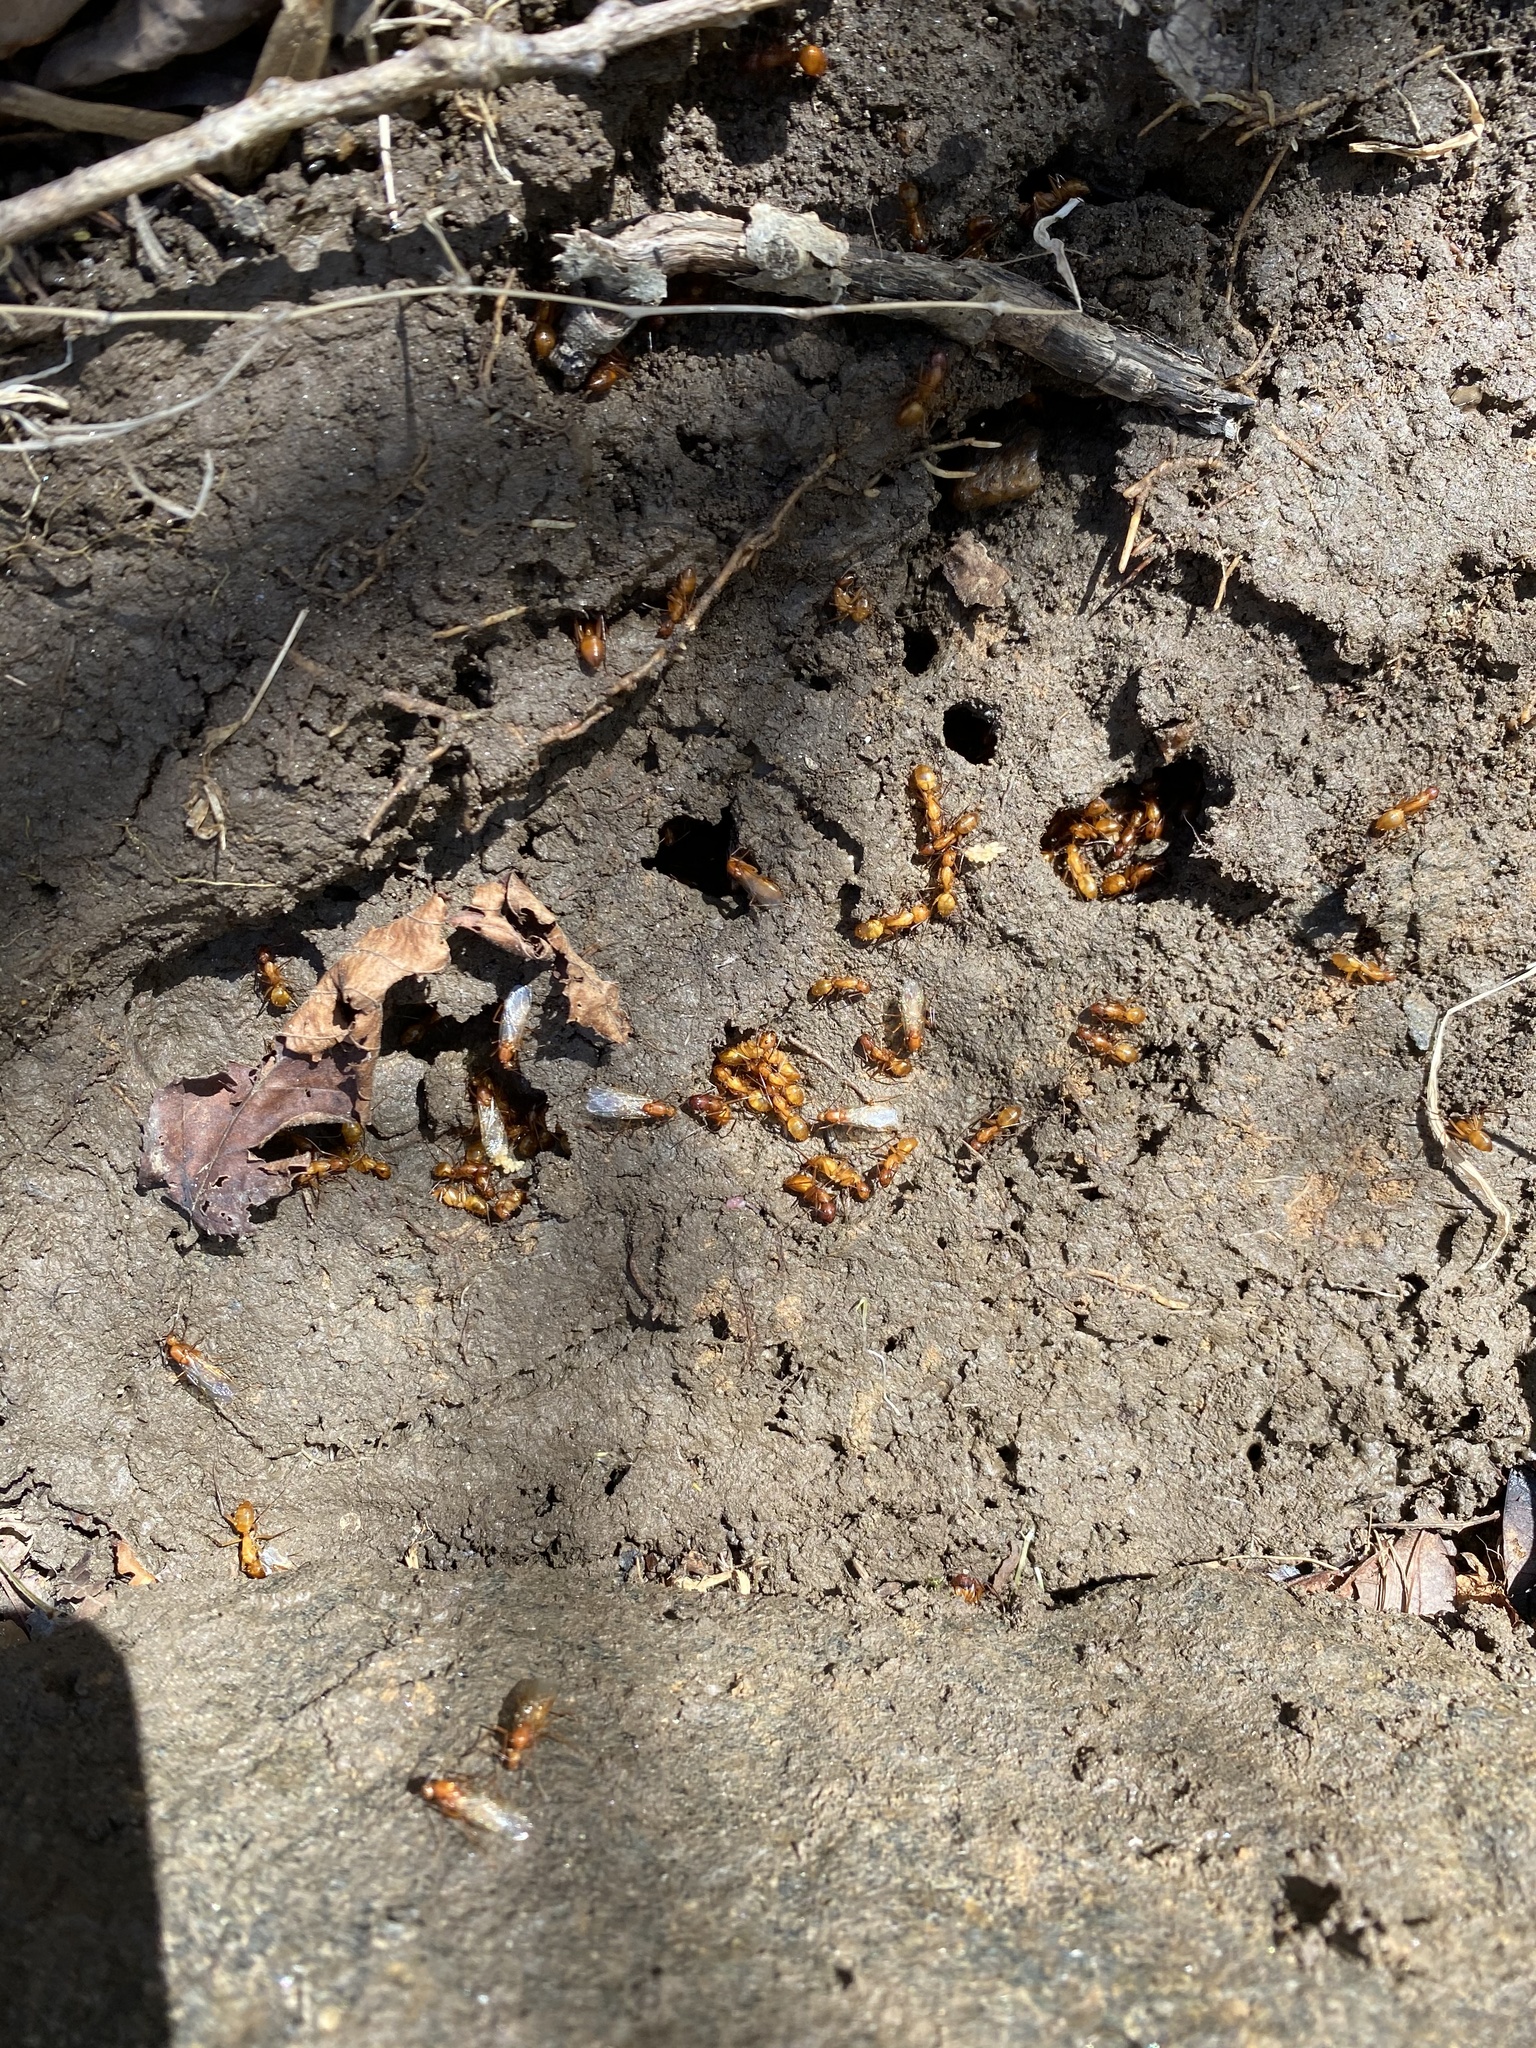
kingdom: Animalia
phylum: Arthropoda
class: Insecta
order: Hymenoptera
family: Formicidae
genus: Camponotus
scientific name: Camponotus castaneus
